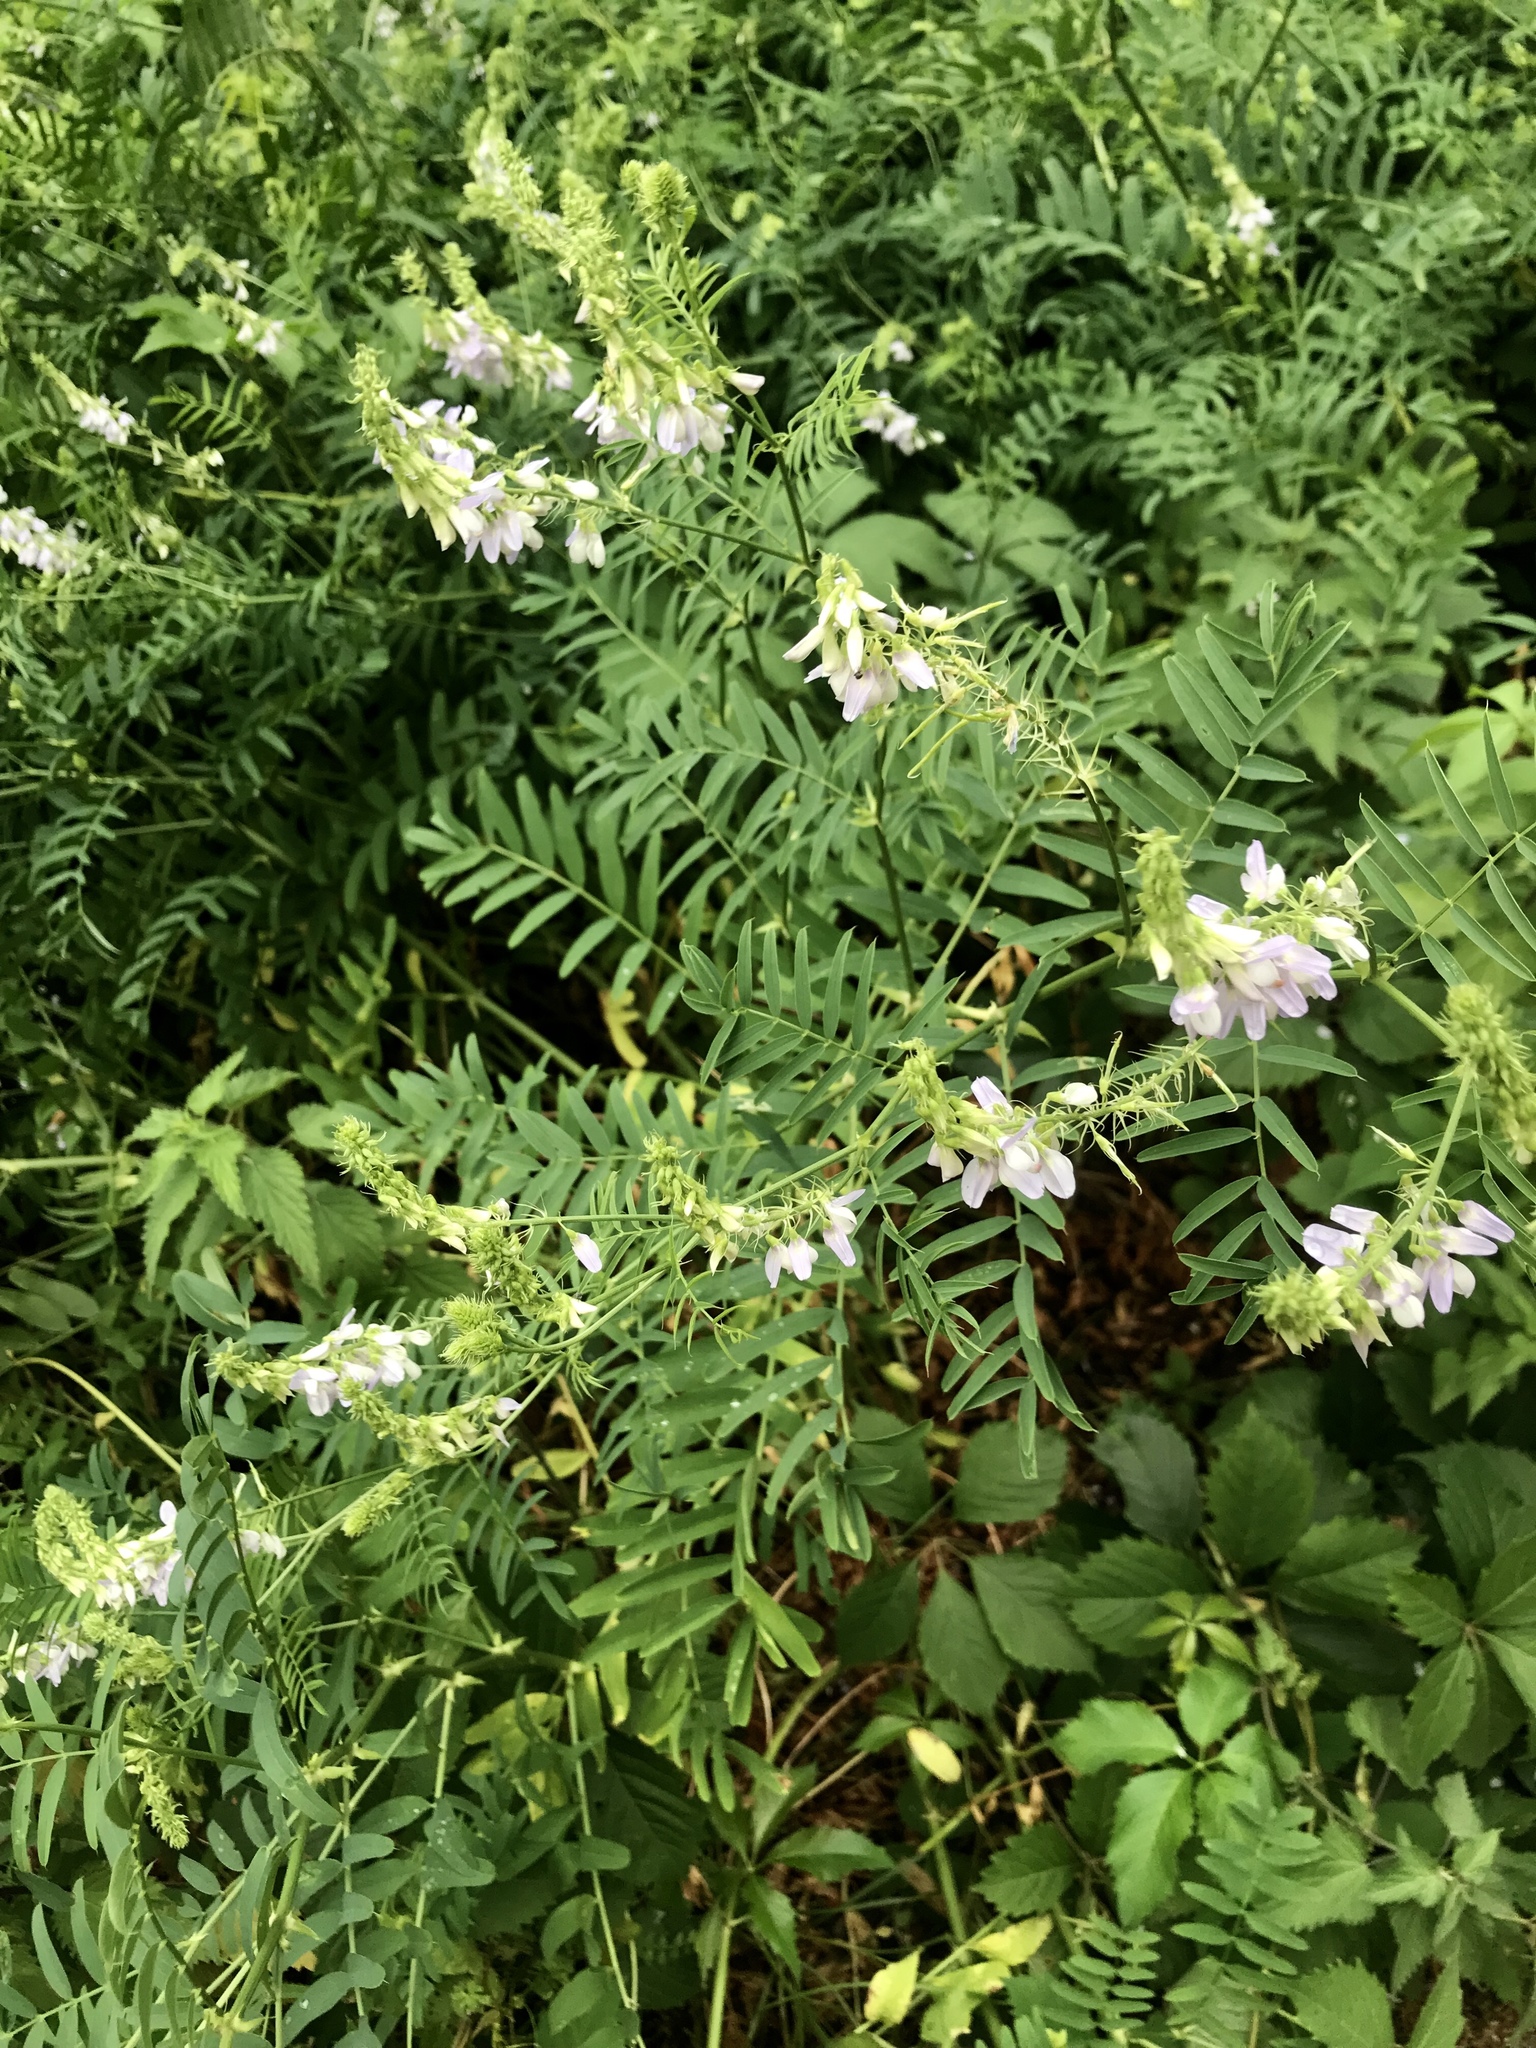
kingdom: Plantae
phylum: Tracheophyta
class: Magnoliopsida
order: Fabales
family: Fabaceae
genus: Galega
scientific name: Galega officinalis
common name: Goat's-rue
